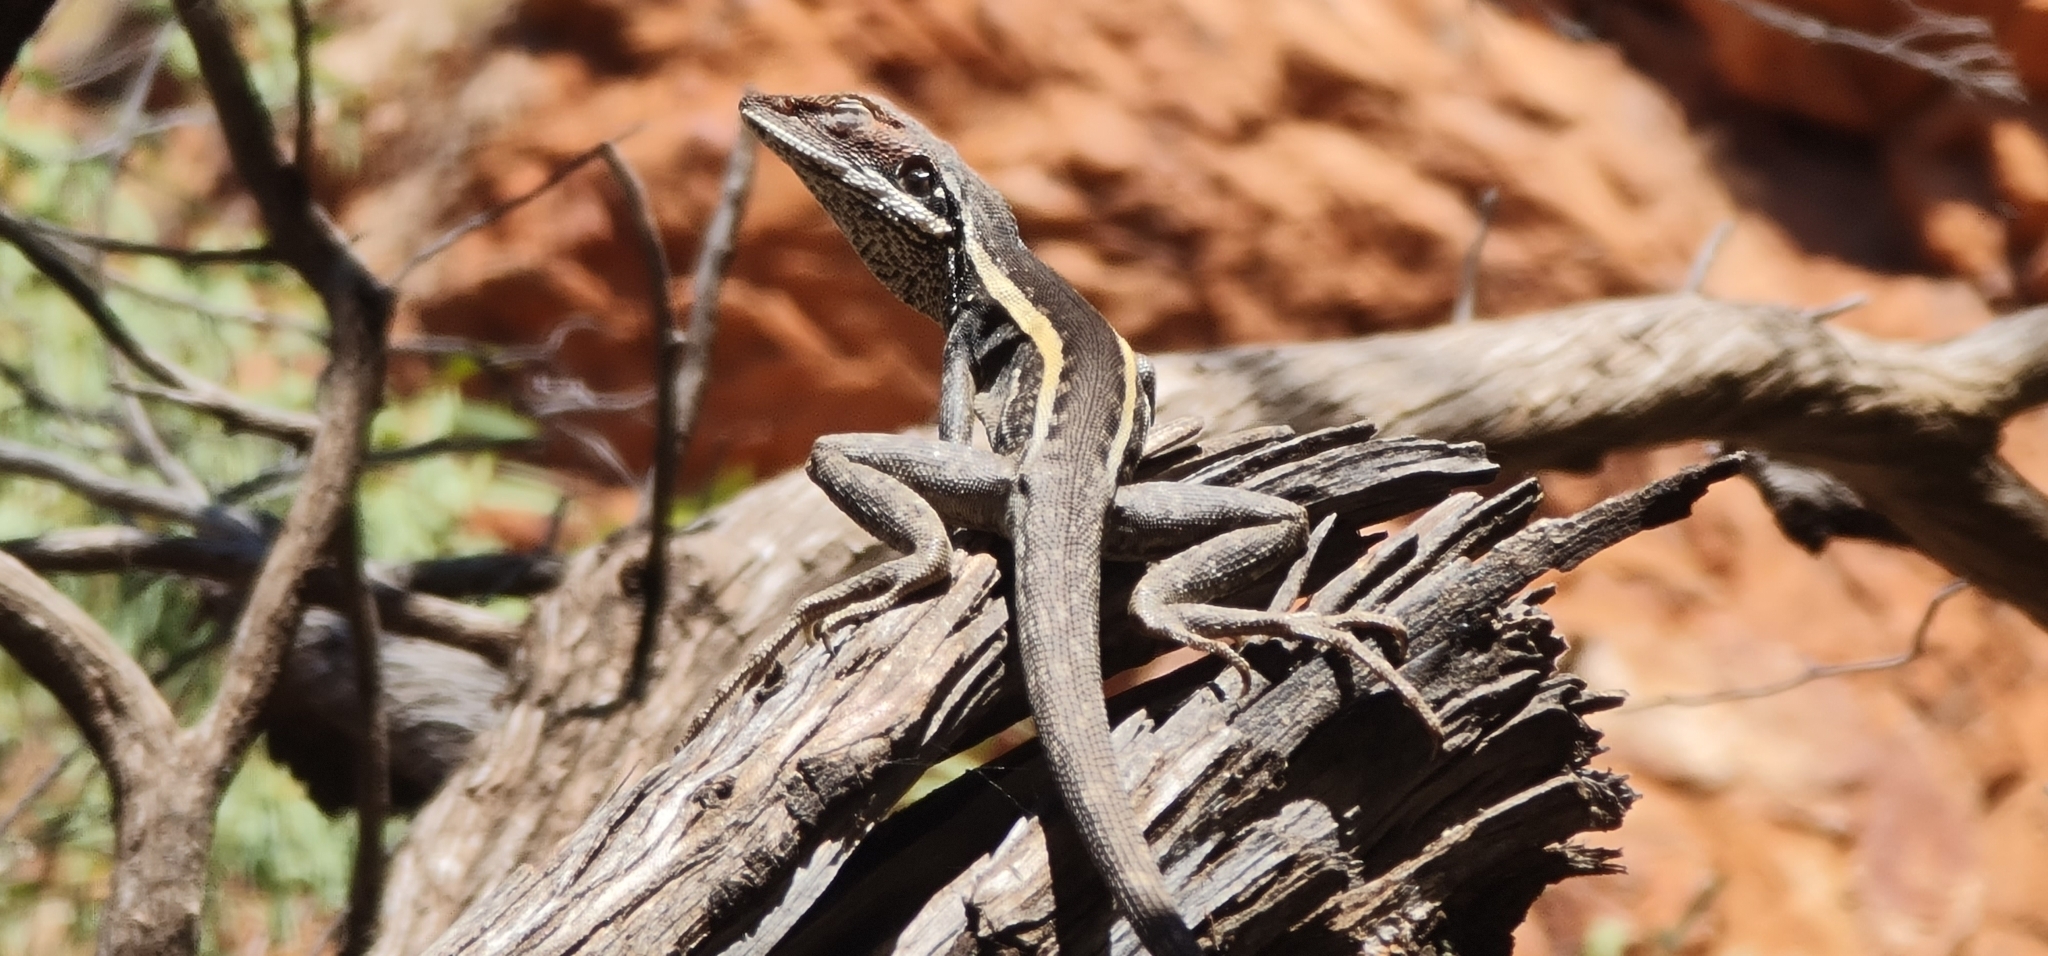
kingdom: Animalia
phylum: Chordata
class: Squamata
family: Agamidae
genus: Gowidon
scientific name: Gowidon longirostris
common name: Long-nosed water dragon
